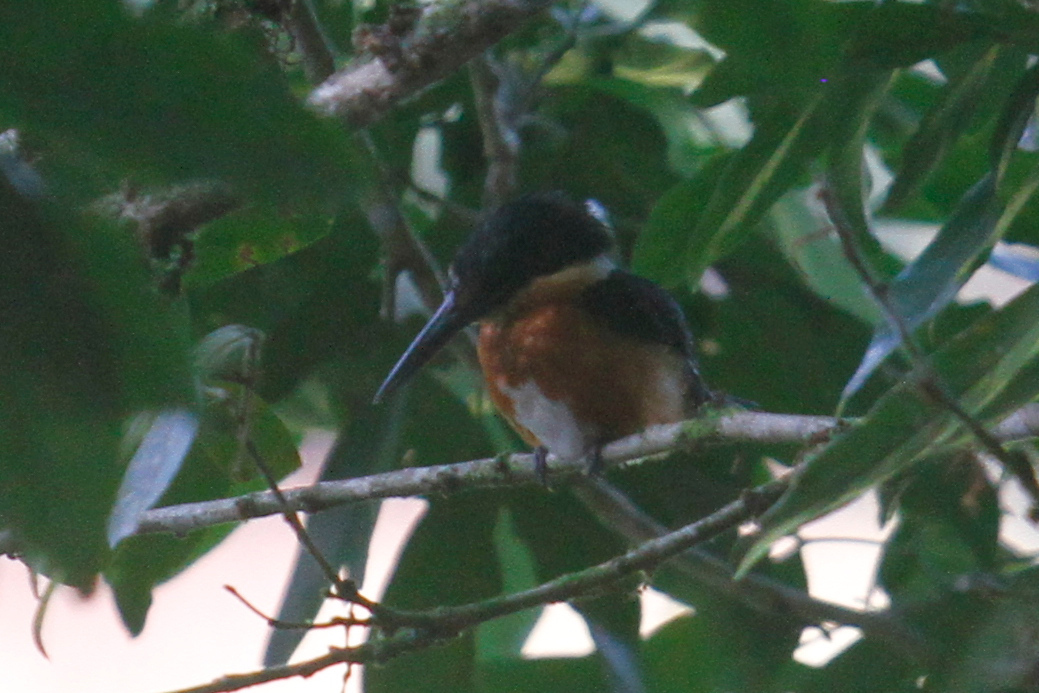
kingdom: Animalia
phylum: Chordata
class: Aves
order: Coraciiformes
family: Alcedinidae
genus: Chloroceryle
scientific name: Chloroceryle aenea
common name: American pygmy kingfisher
